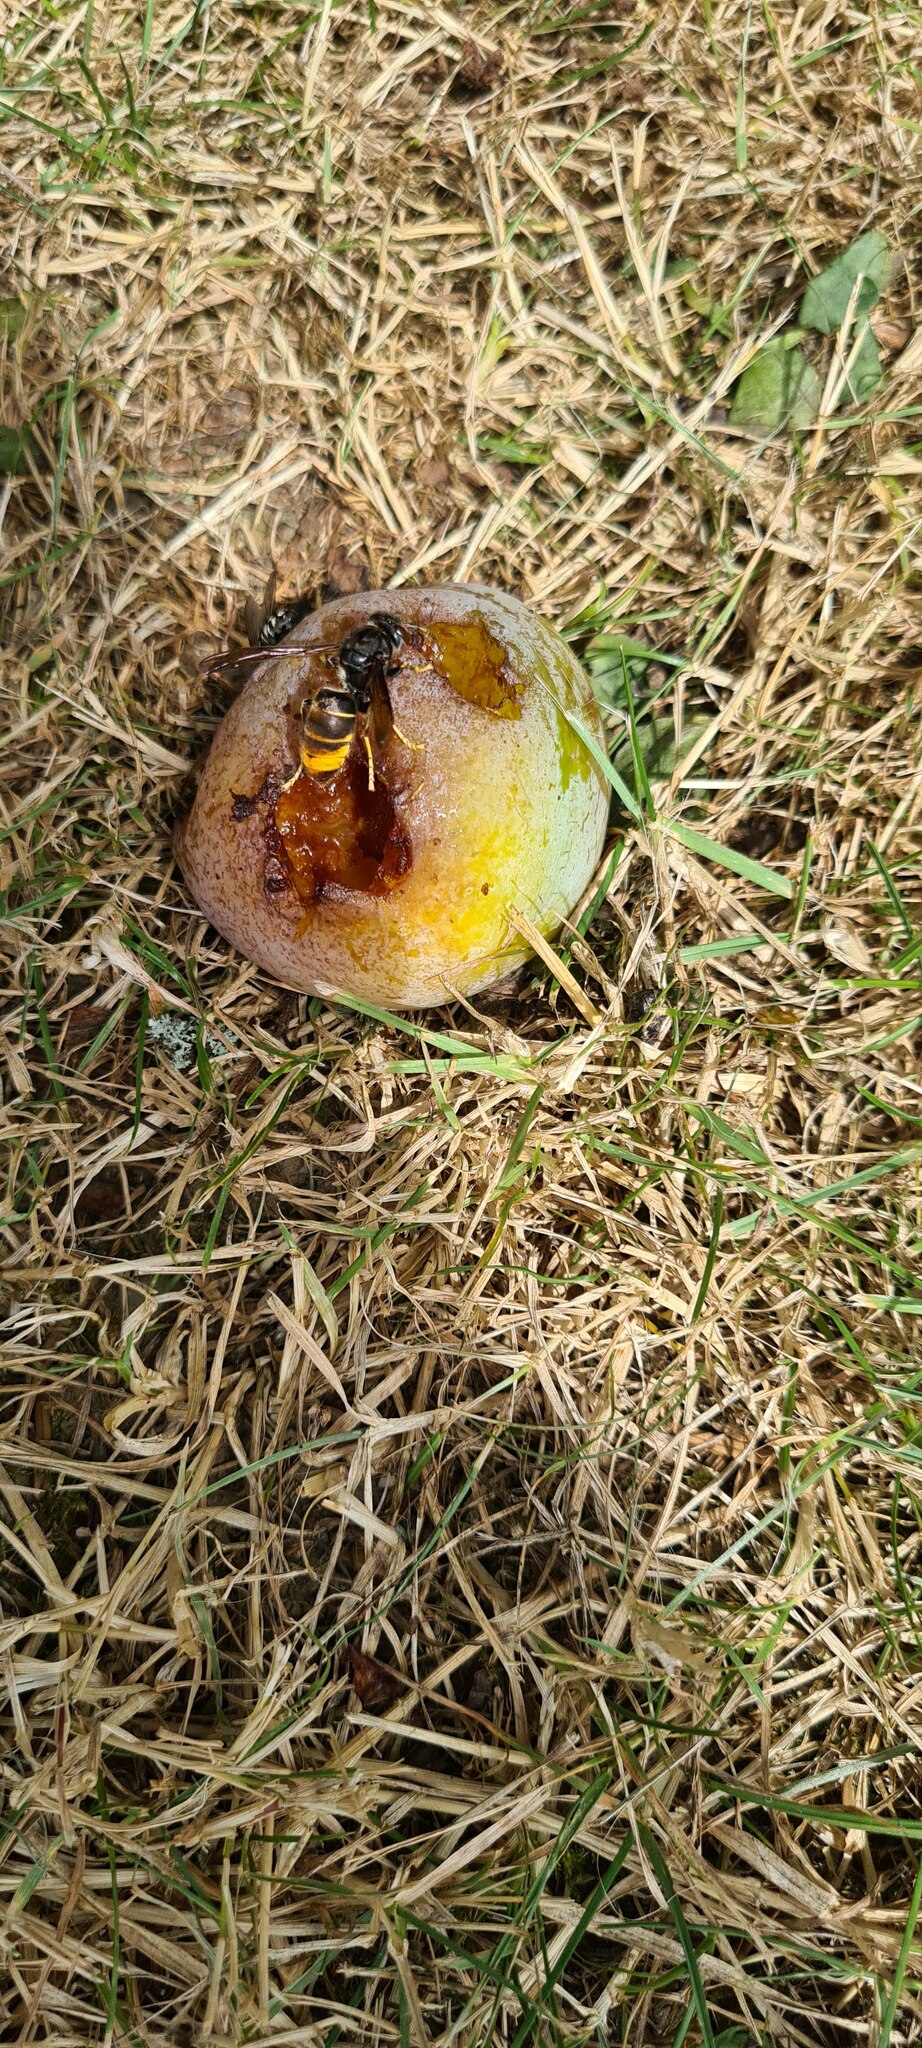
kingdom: Animalia
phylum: Arthropoda
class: Insecta
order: Hymenoptera
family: Vespidae
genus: Vespa
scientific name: Vespa velutina
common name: Asian hornet
